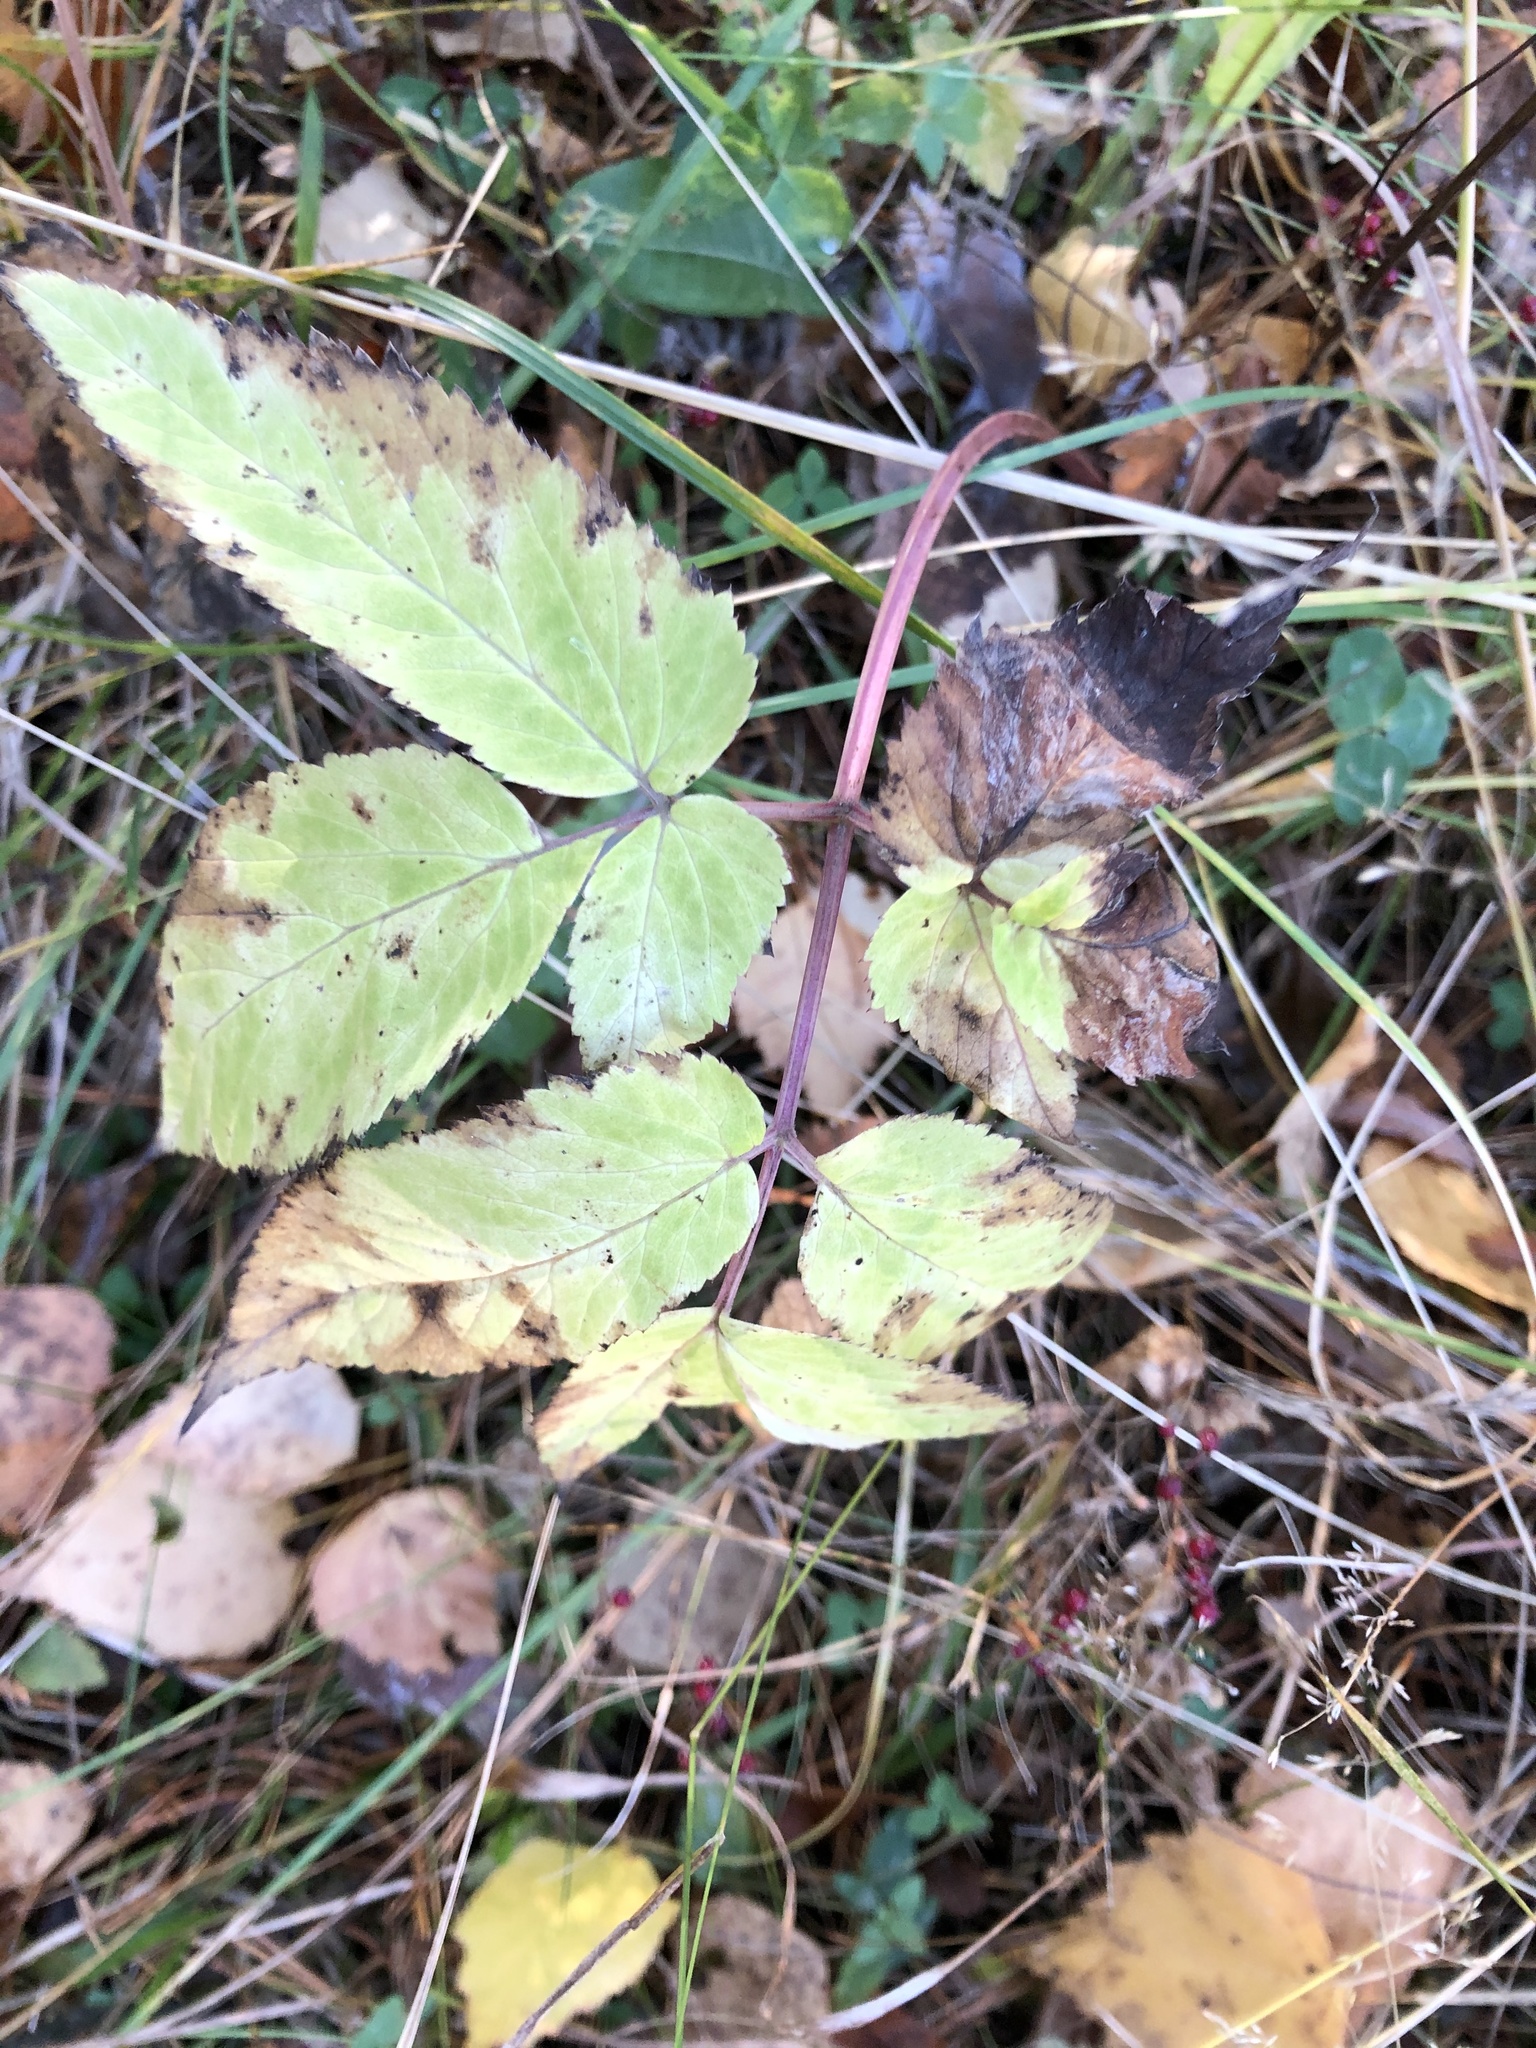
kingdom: Plantae
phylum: Tracheophyta
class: Magnoliopsida
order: Apiales
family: Apiaceae
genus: Aegopodium
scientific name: Aegopodium podagraria
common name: Ground-elder
